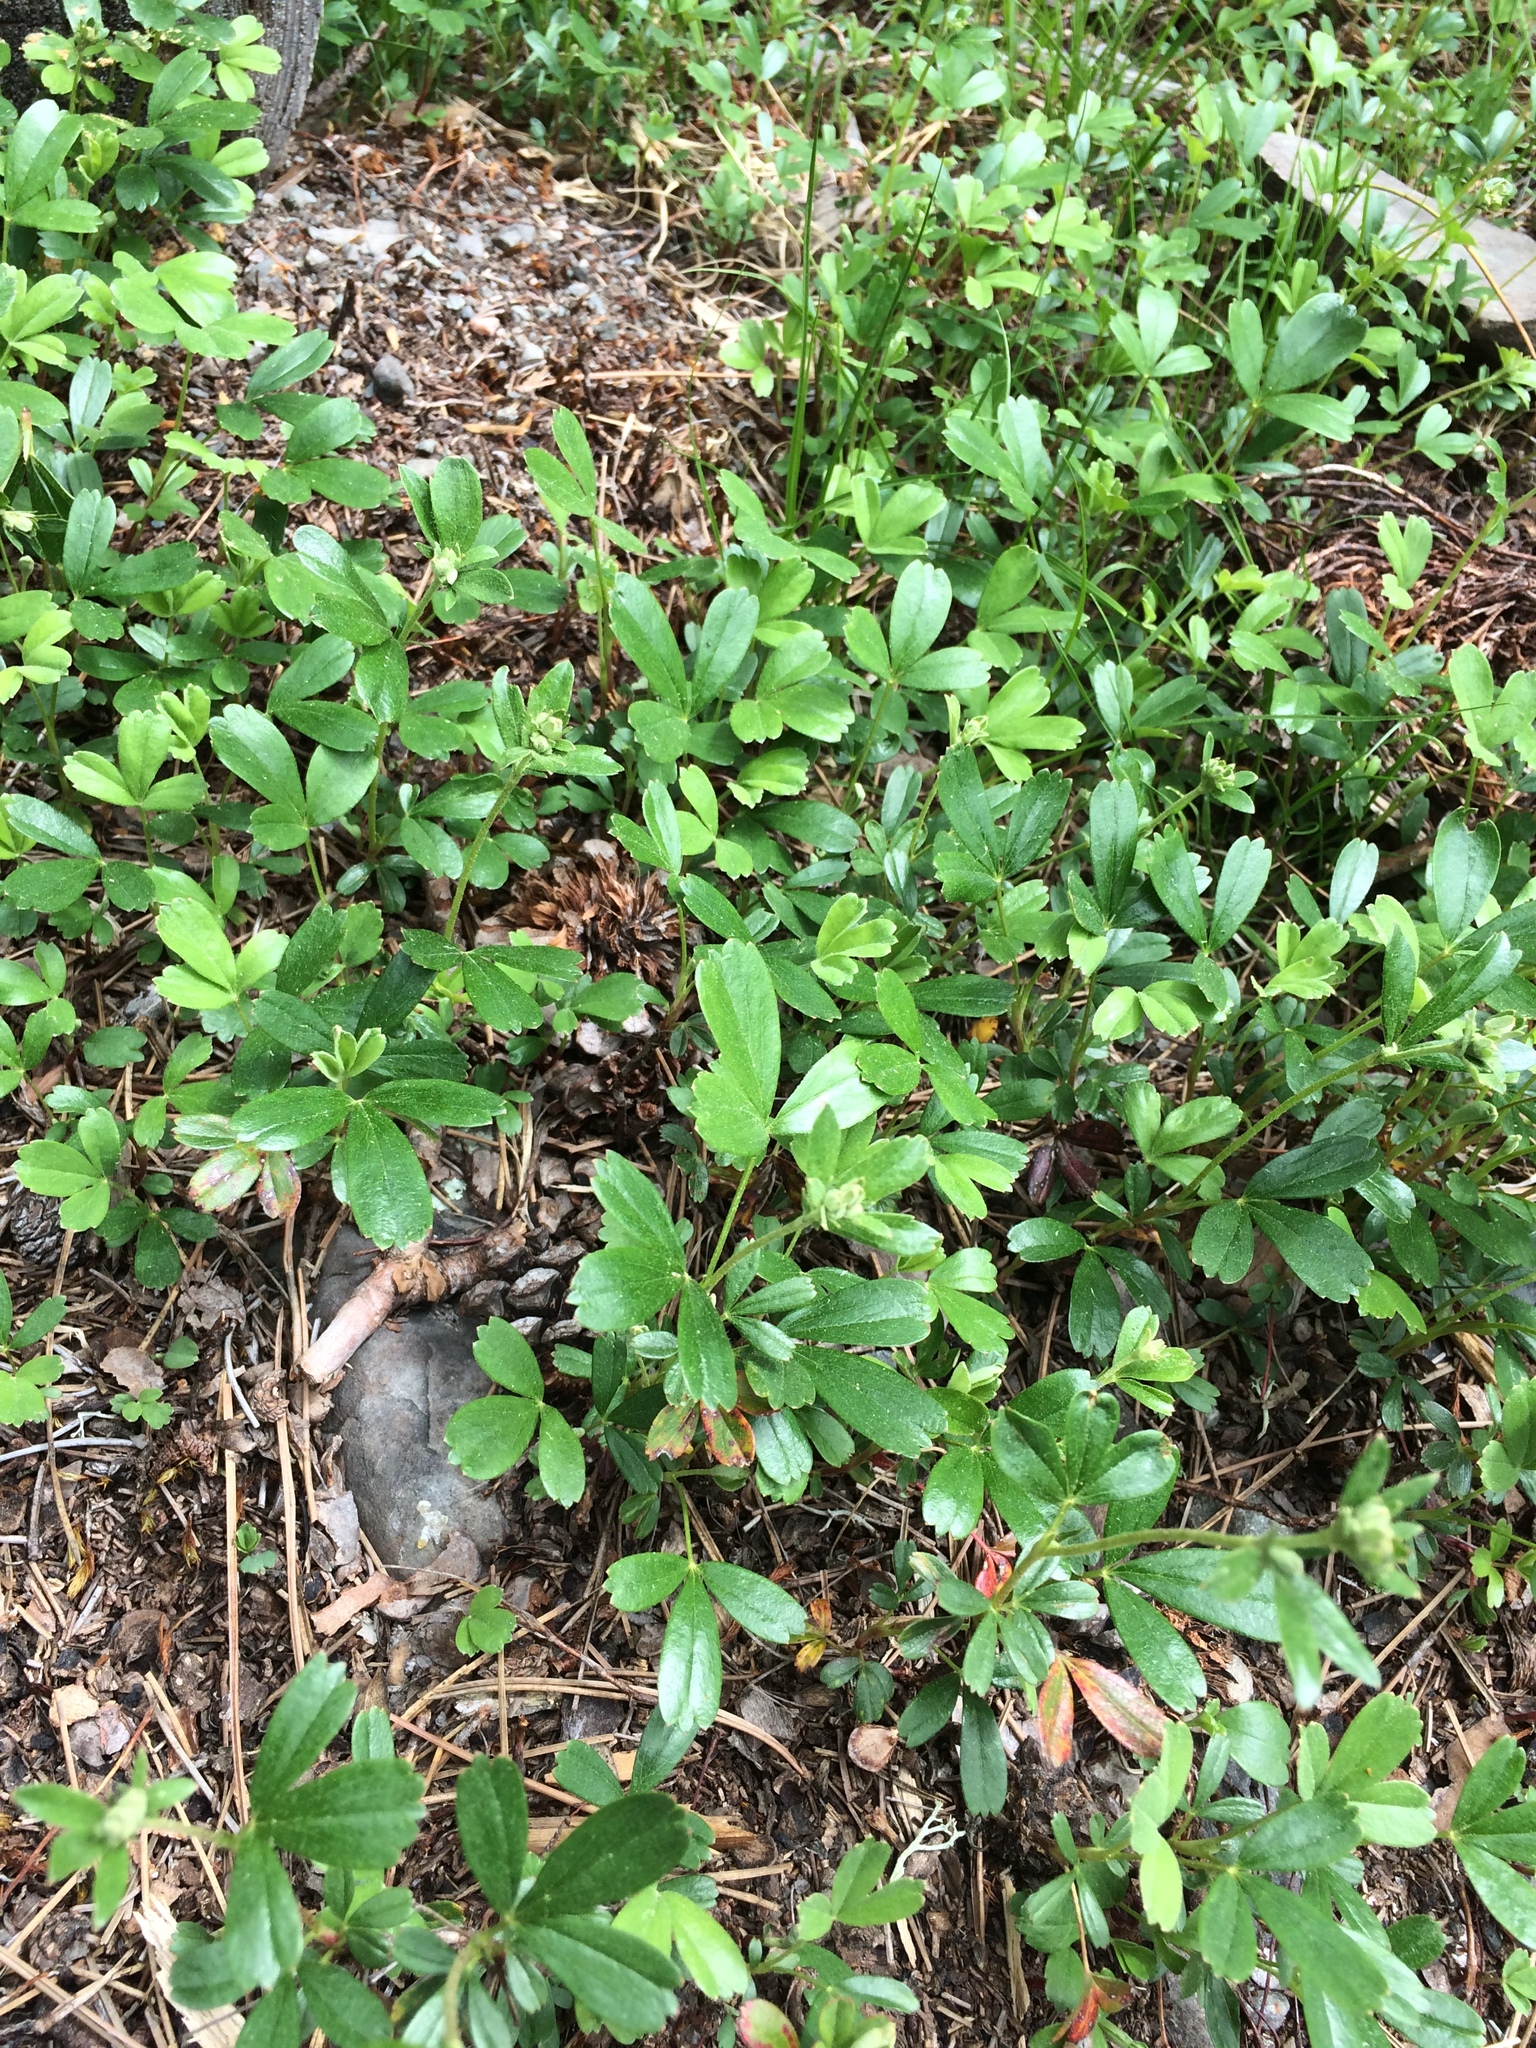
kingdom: Plantae
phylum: Tracheophyta
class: Magnoliopsida
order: Rosales
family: Rosaceae
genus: Sibbaldia
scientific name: Sibbaldia tridentata
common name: Three-toothed cinquefoil
